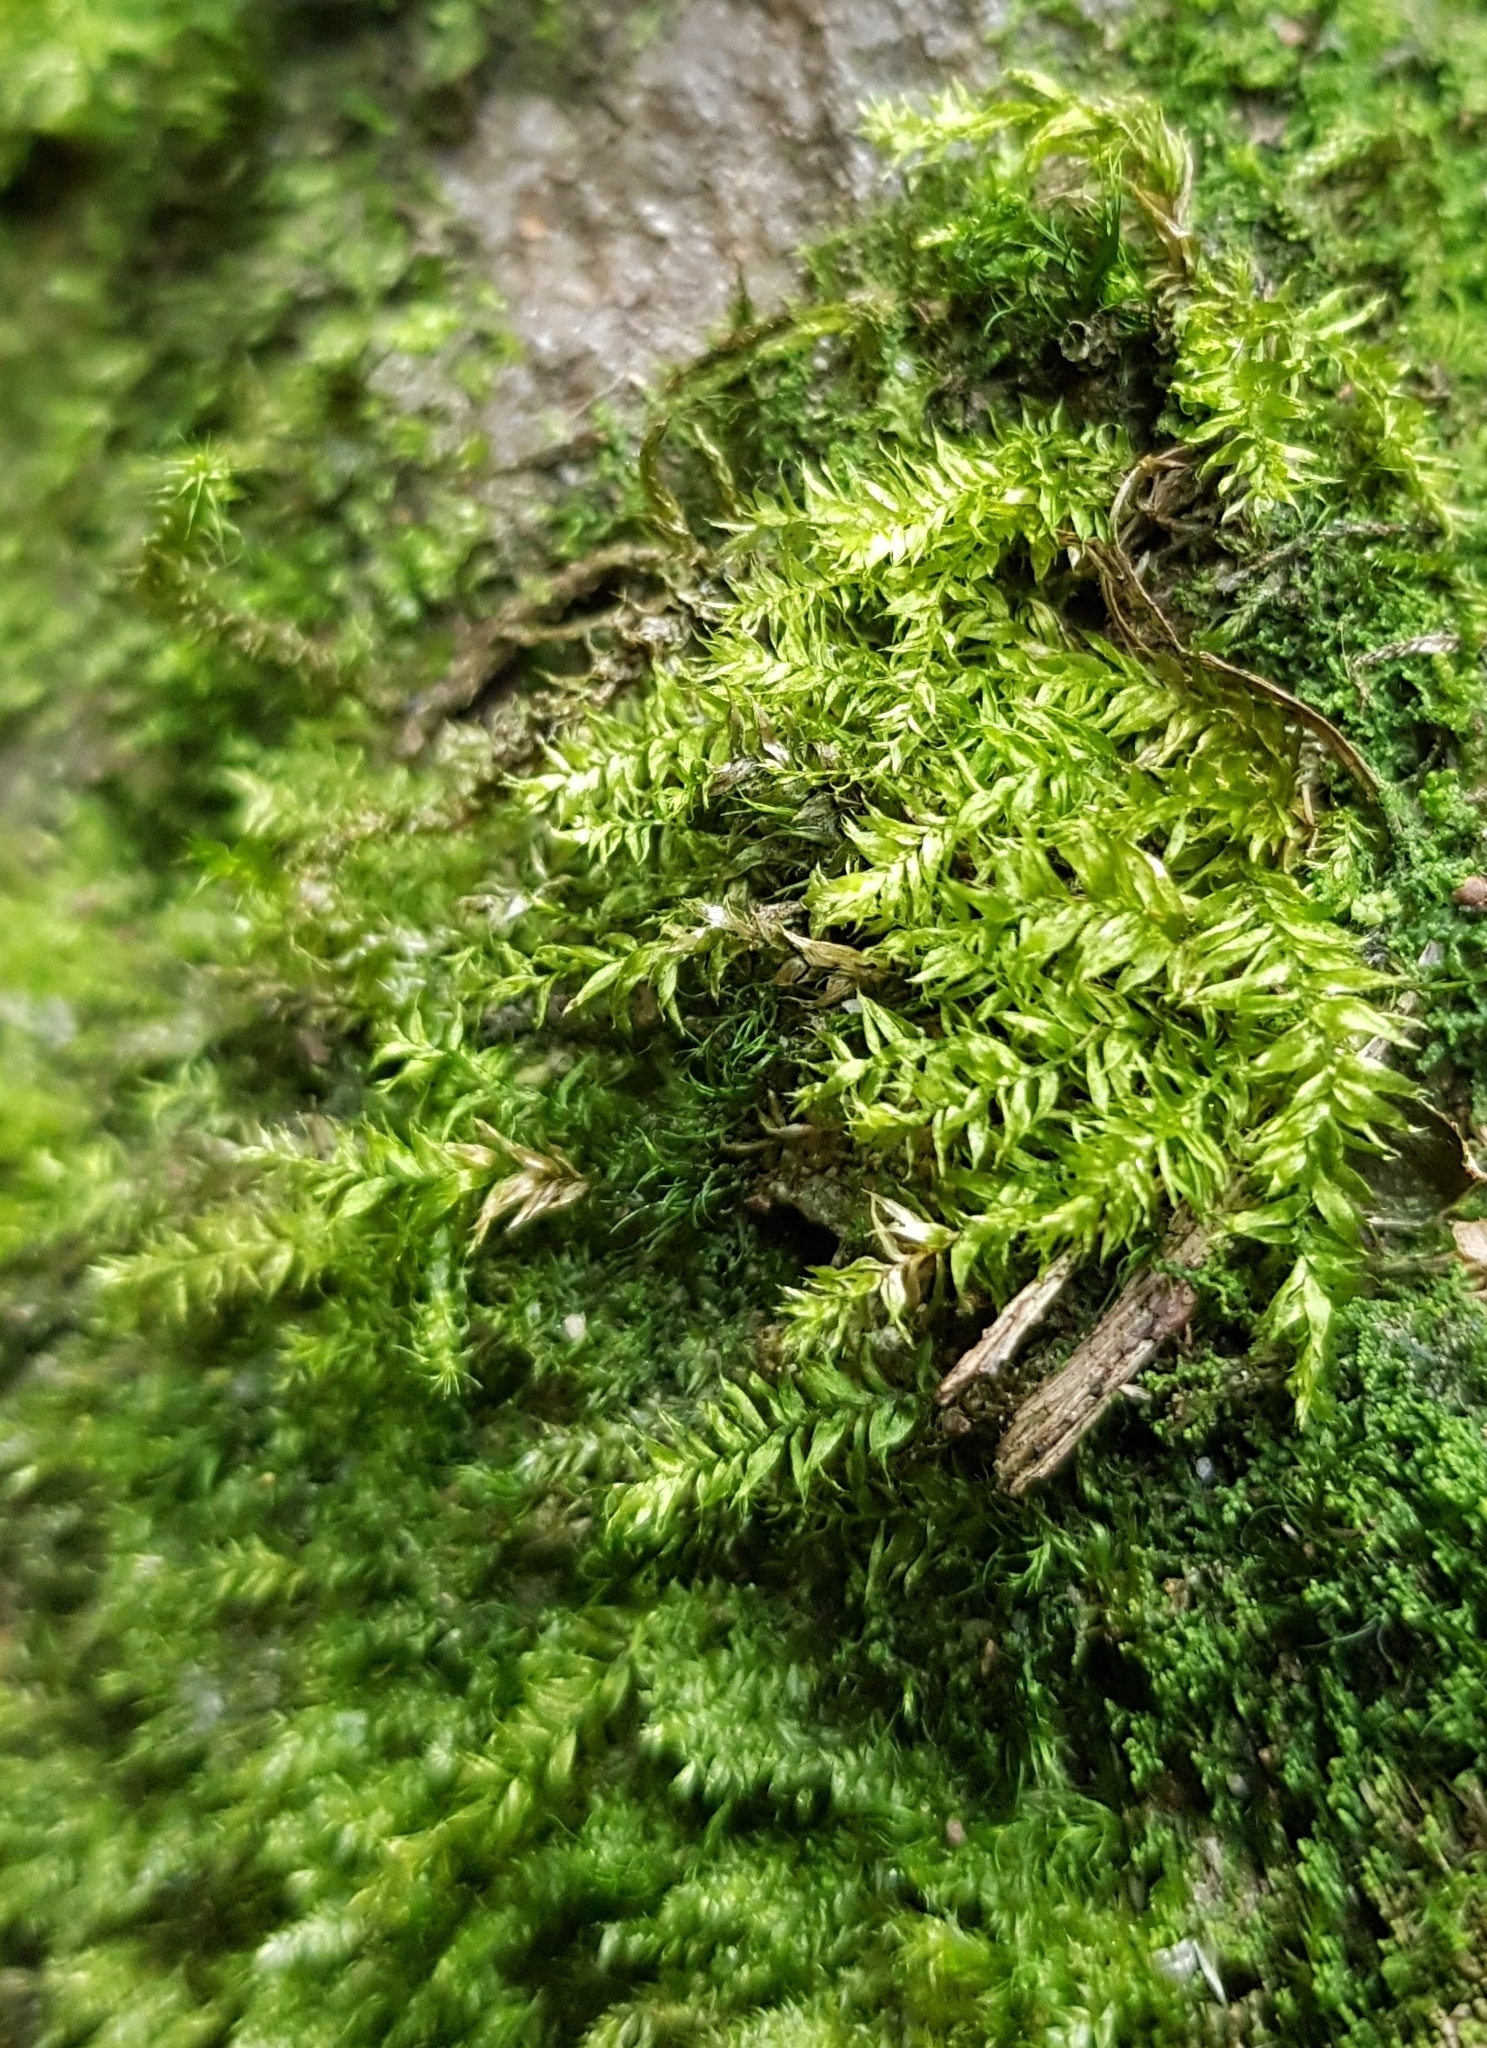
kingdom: Plantae
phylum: Bryophyta
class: Bryopsida
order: Hypnales
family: Plagiotheciaceae
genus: Plagiothecium
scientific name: Plagiothecium succulentum
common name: Juicy silk-moss
